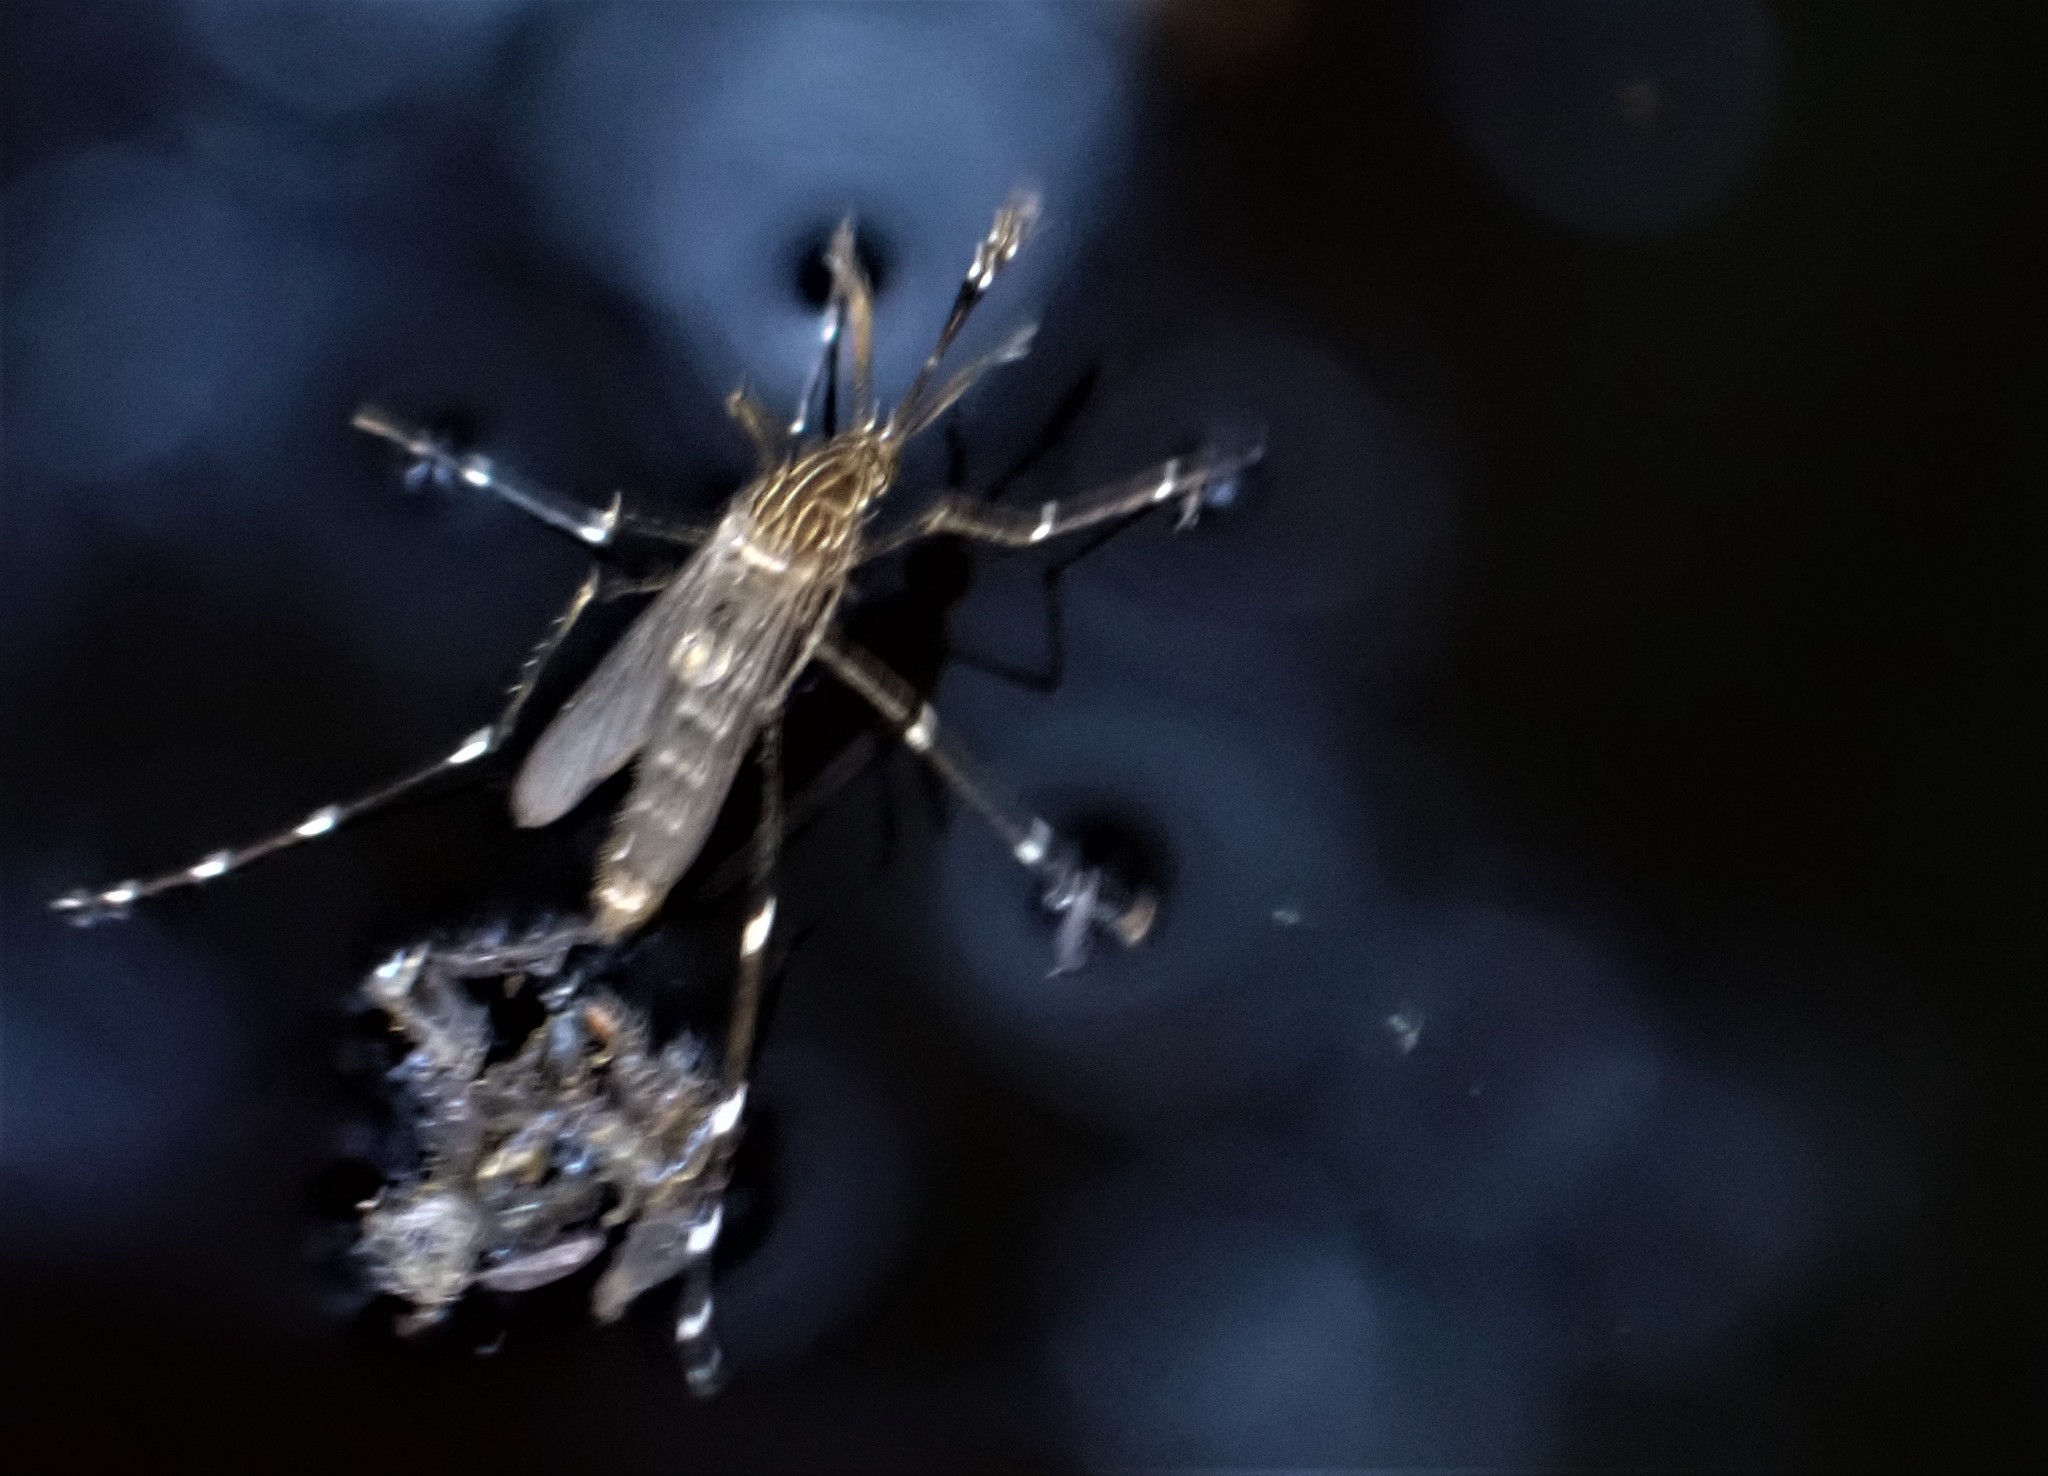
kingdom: Animalia
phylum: Arthropoda
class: Insecta
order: Diptera
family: Culicidae
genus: Aedes
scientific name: Aedes notoscriptus
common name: Australian backyard mosquito
